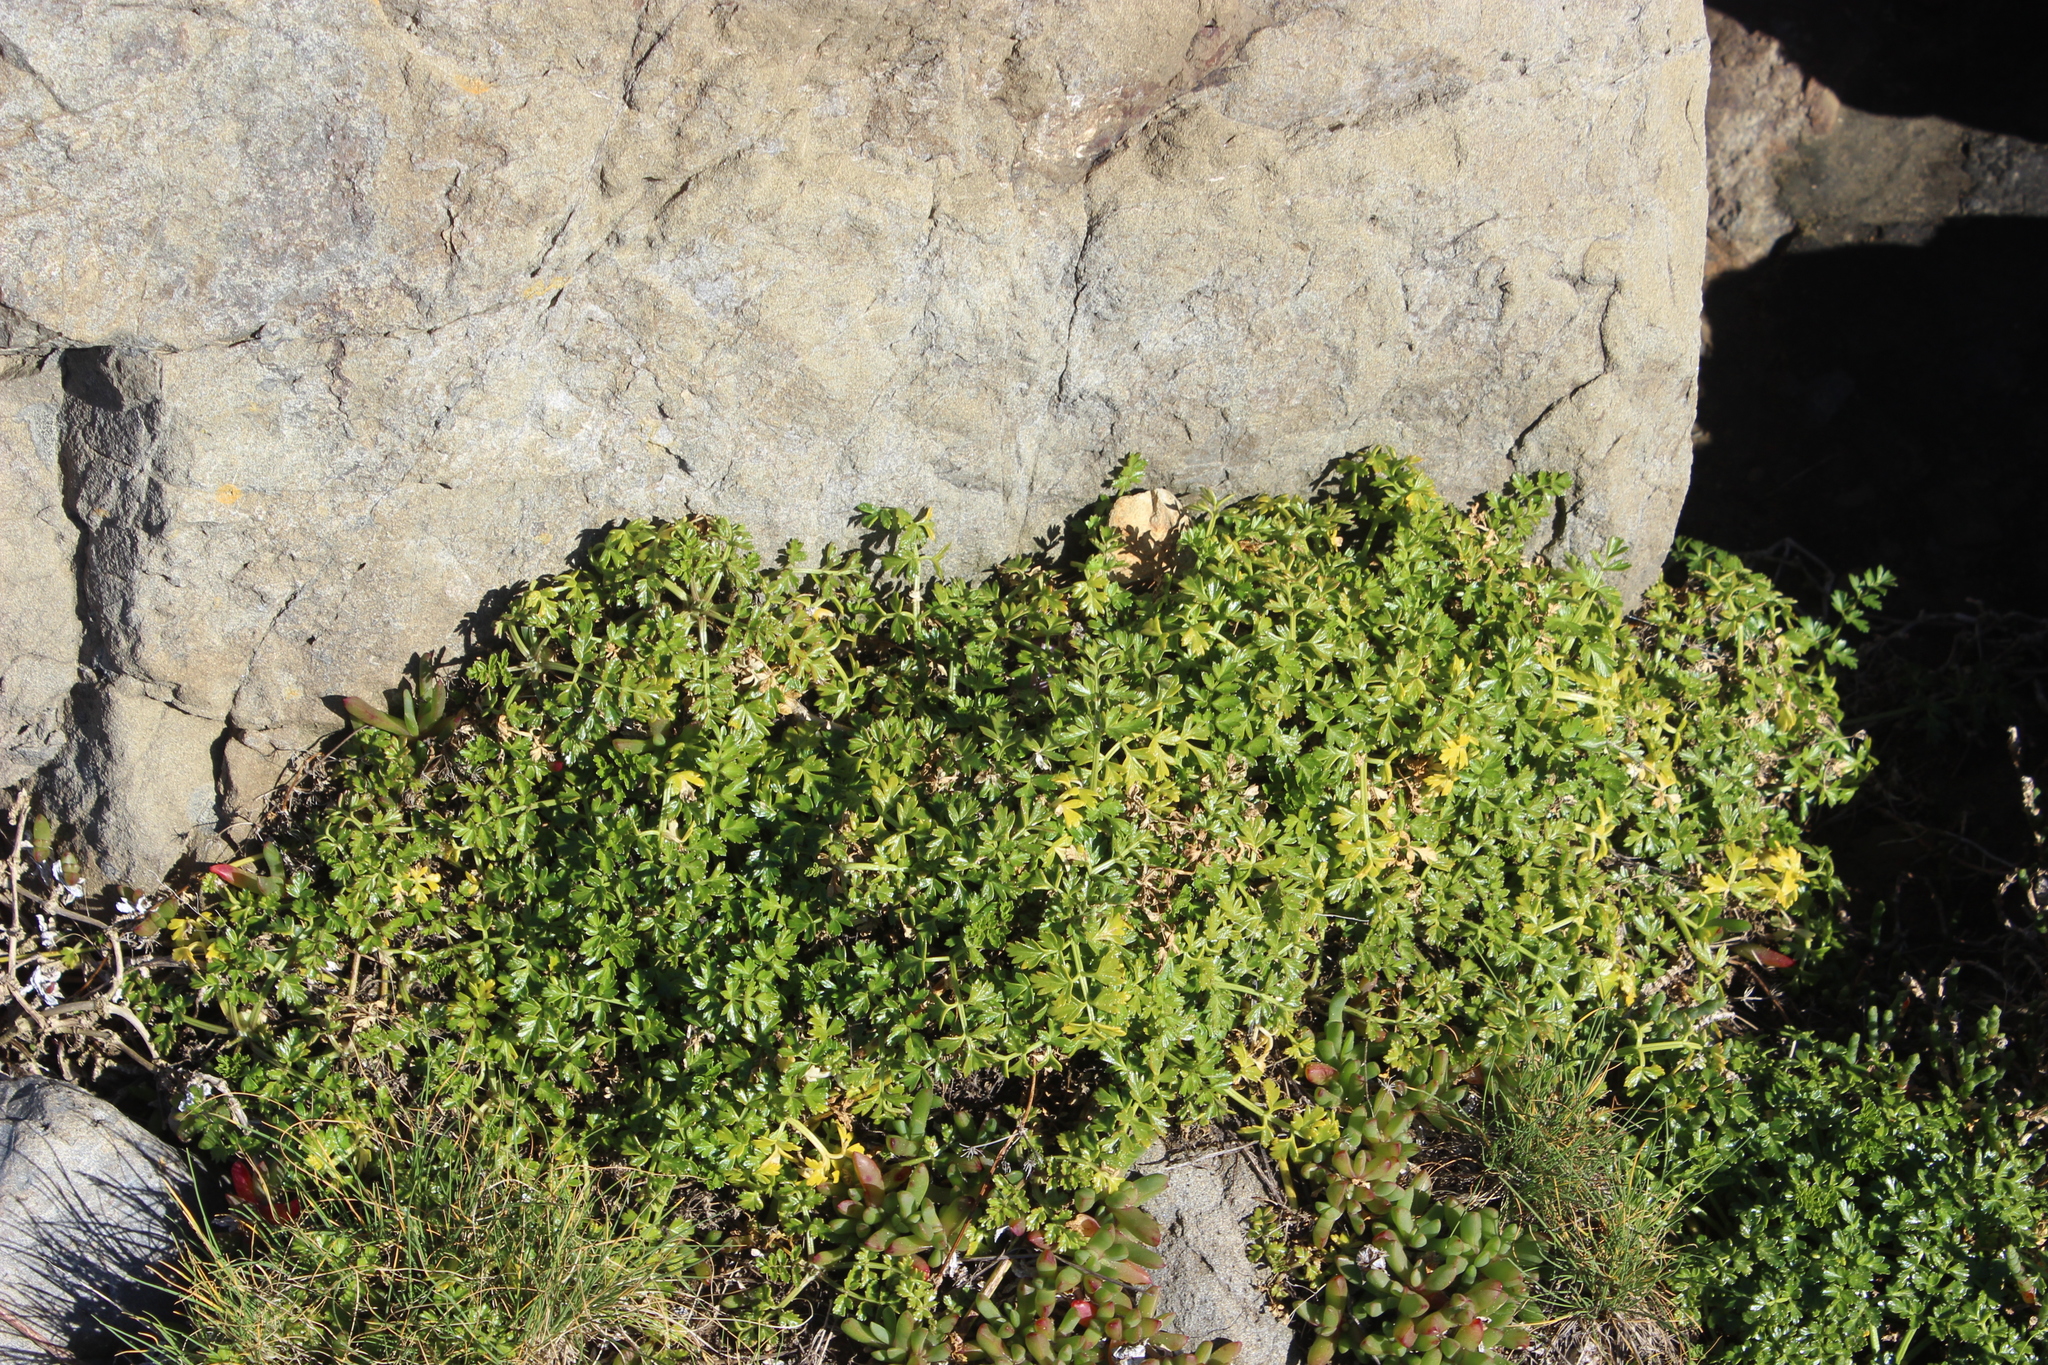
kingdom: Plantae
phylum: Tracheophyta
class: Magnoliopsida
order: Apiales
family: Apiaceae
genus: Apium
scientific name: Apium prostratum
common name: Prostrate marshwort
